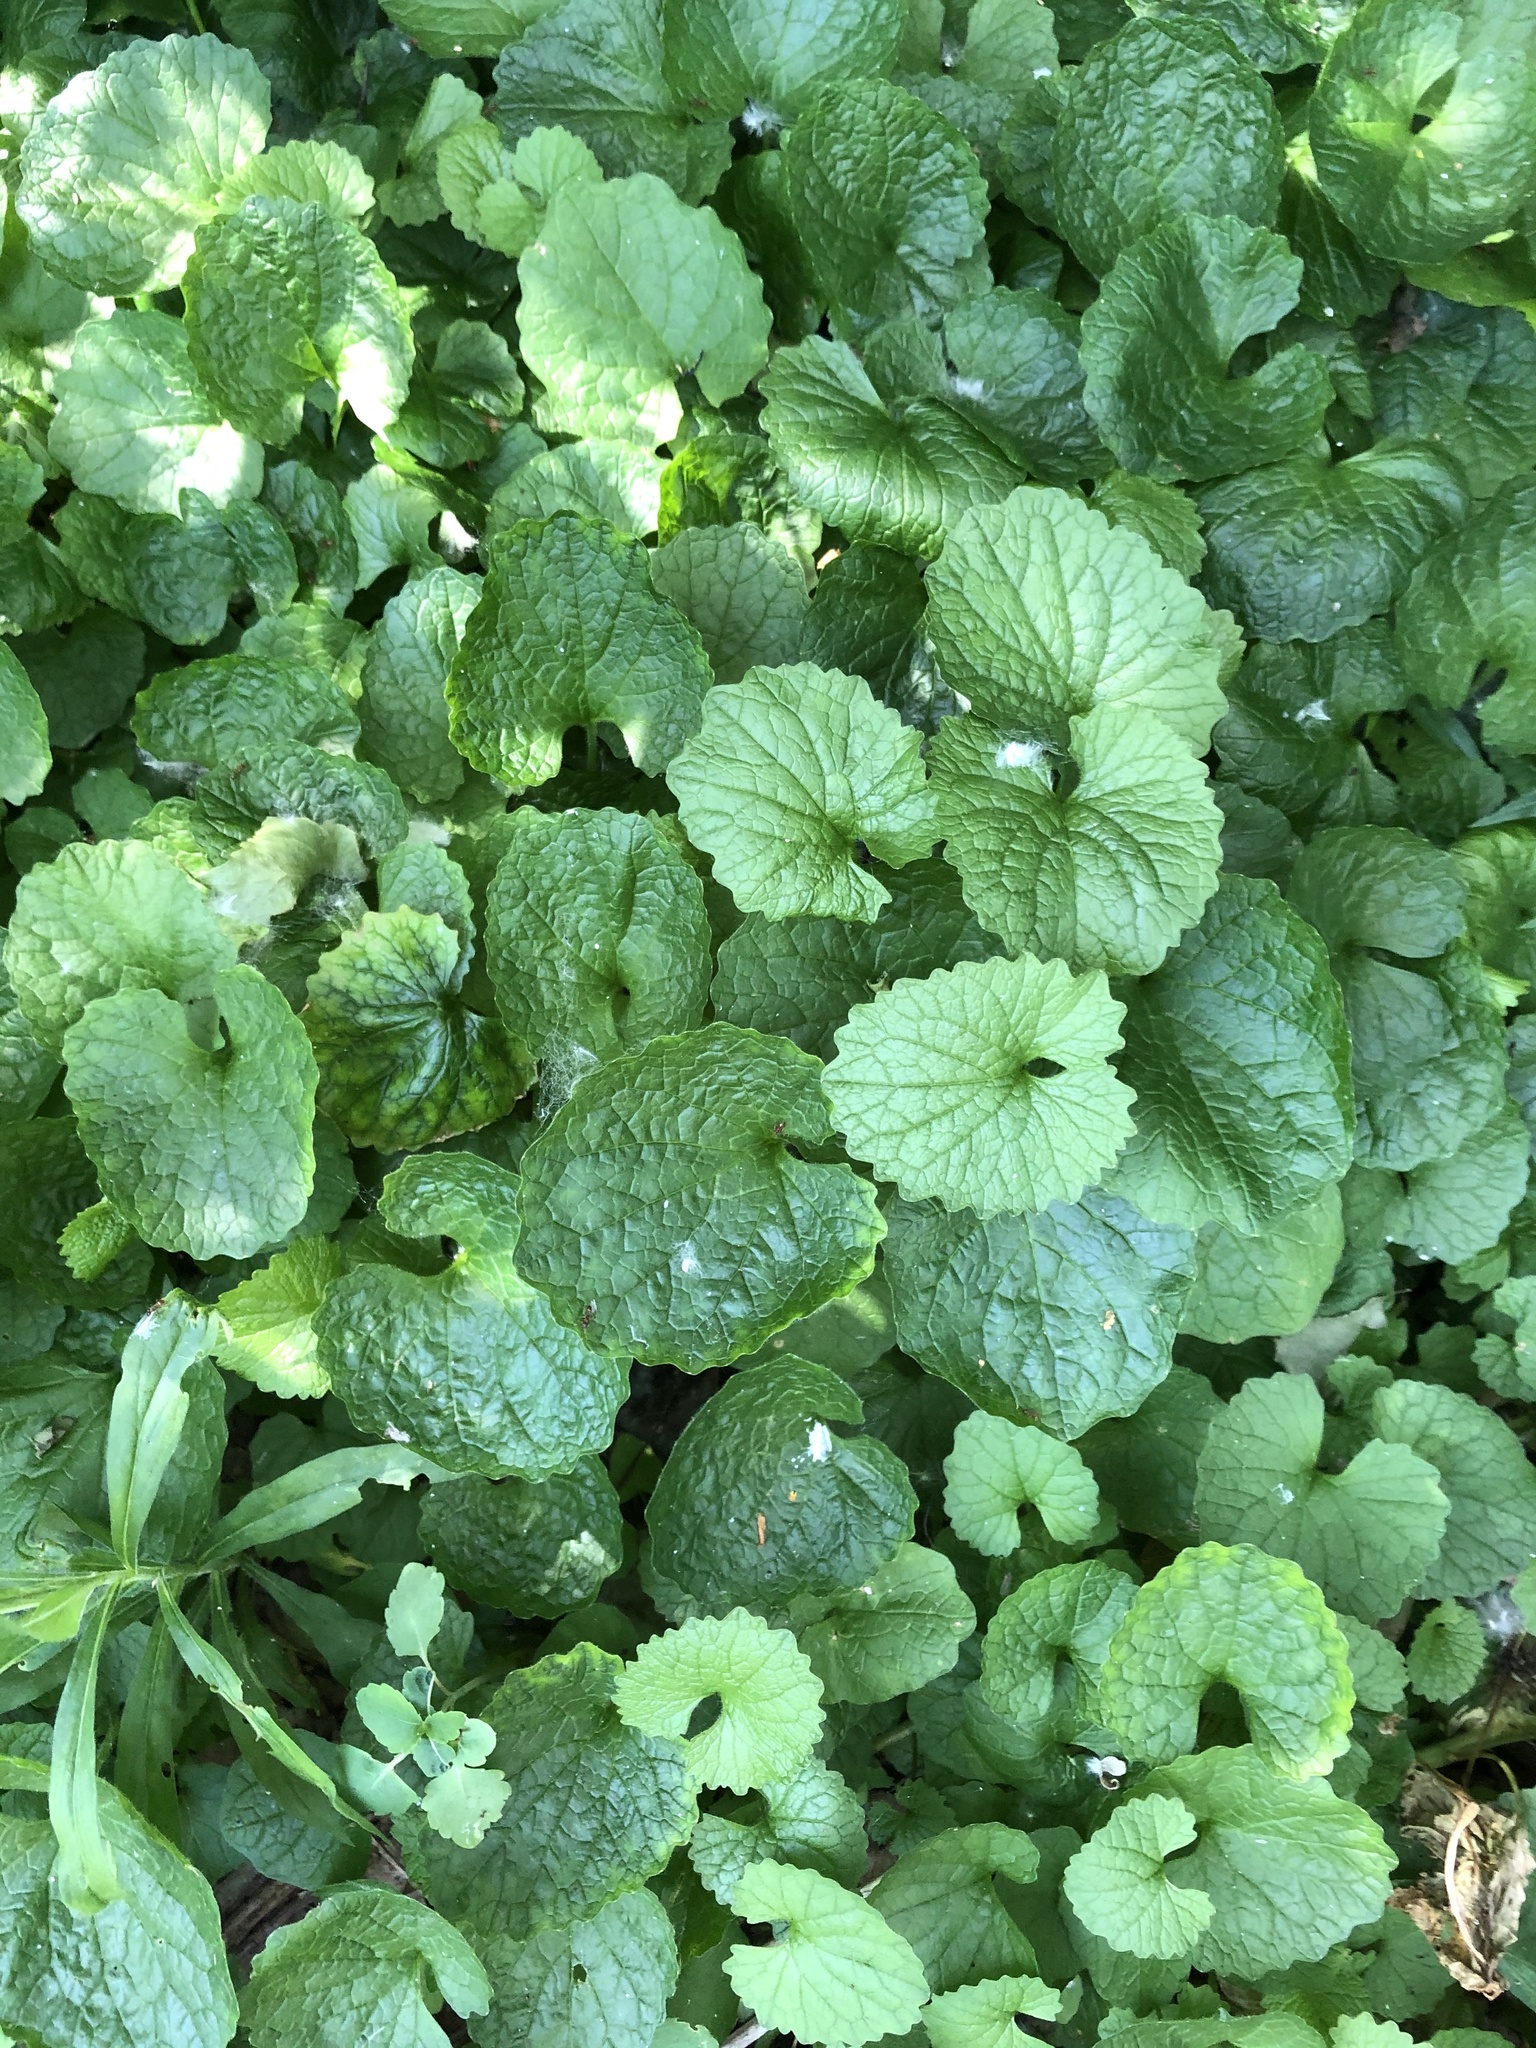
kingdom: Plantae
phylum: Tracheophyta
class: Magnoliopsida
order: Brassicales
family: Brassicaceae
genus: Alliaria
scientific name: Alliaria petiolata
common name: Garlic mustard
